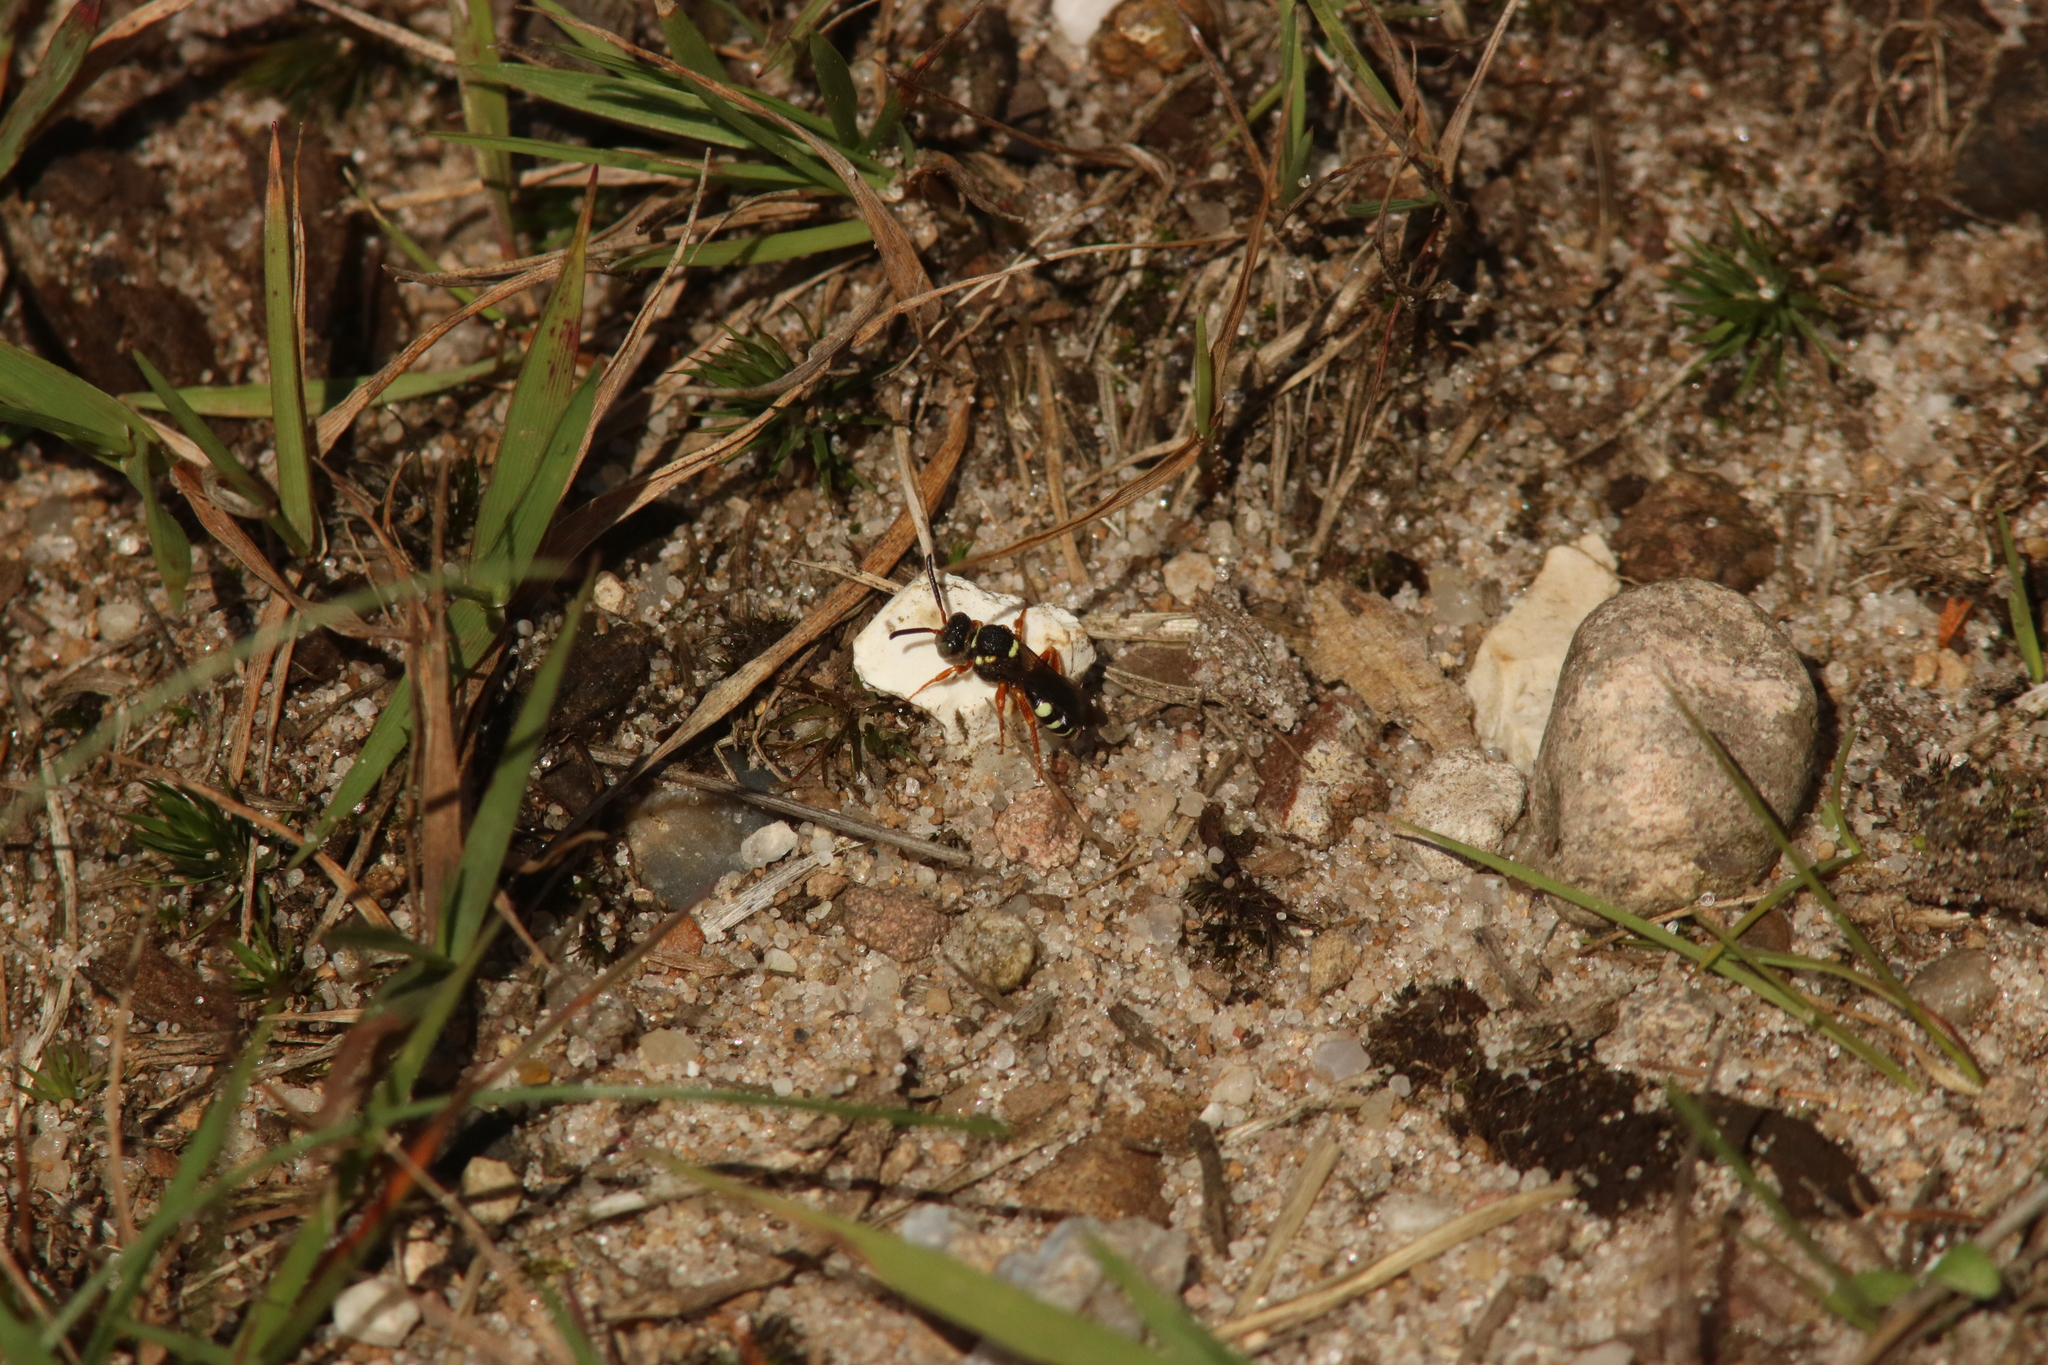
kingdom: Animalia
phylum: Arthropoda
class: Insecta
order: Hymenoptera
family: Apidae
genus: Nomada
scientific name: Nomada rufipes
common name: Black-horned nomad bee
